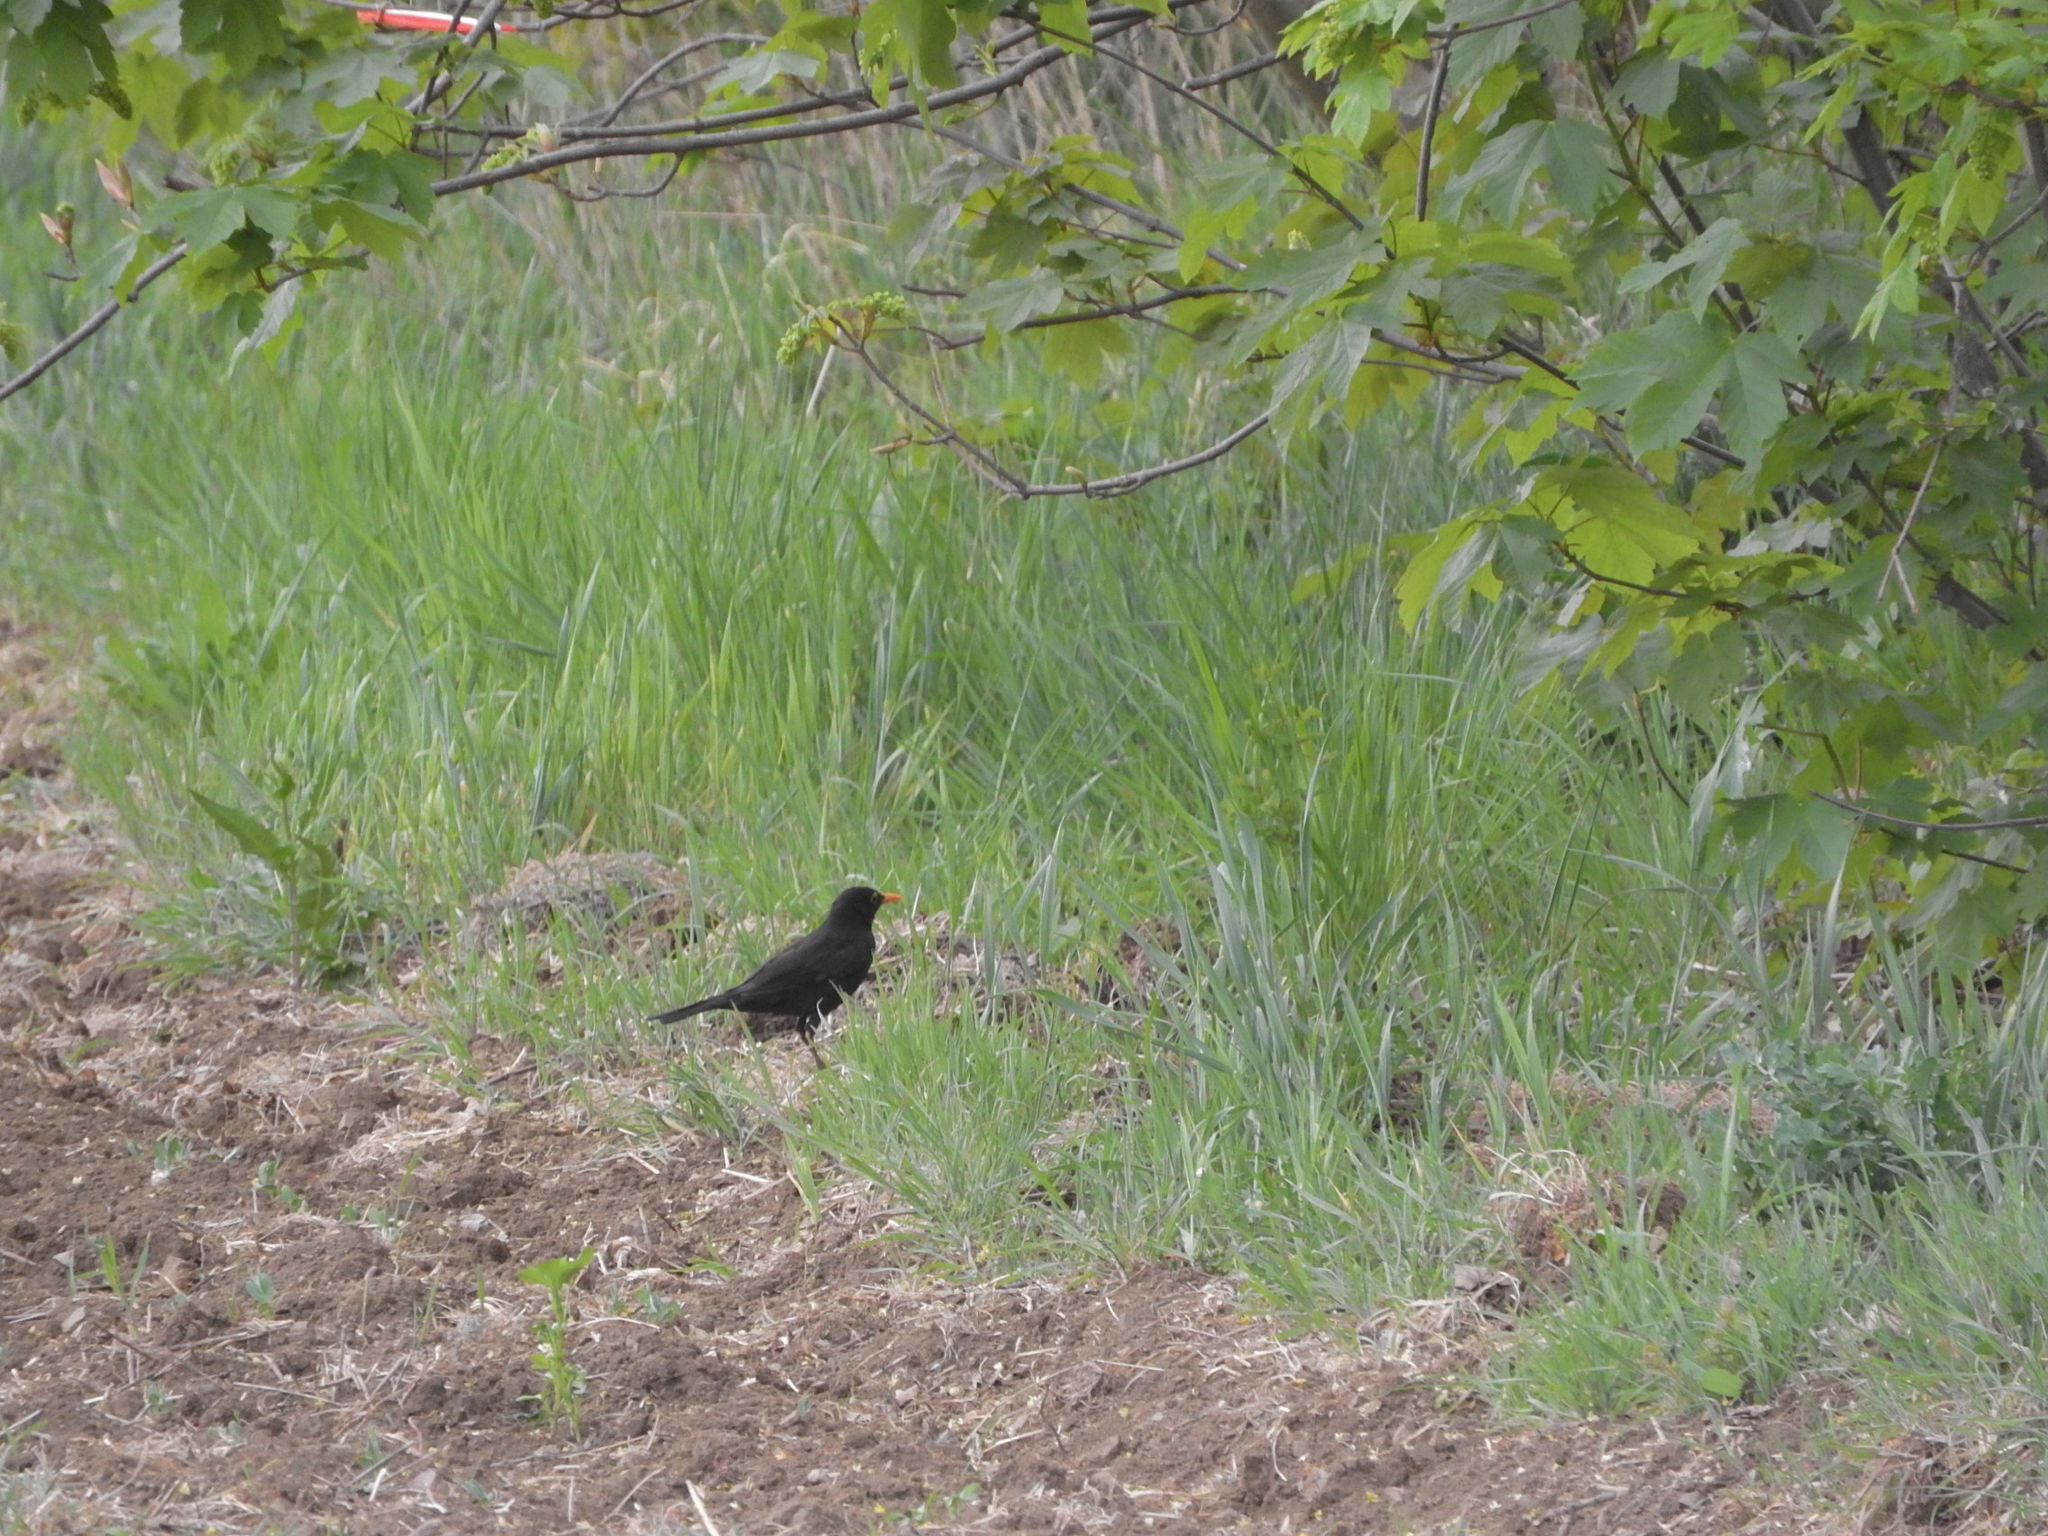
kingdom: Animalia
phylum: Chordata
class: Aves
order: Passeriformes
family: Turdidae
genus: Turdus
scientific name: Turdus merula
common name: Common blackbird
